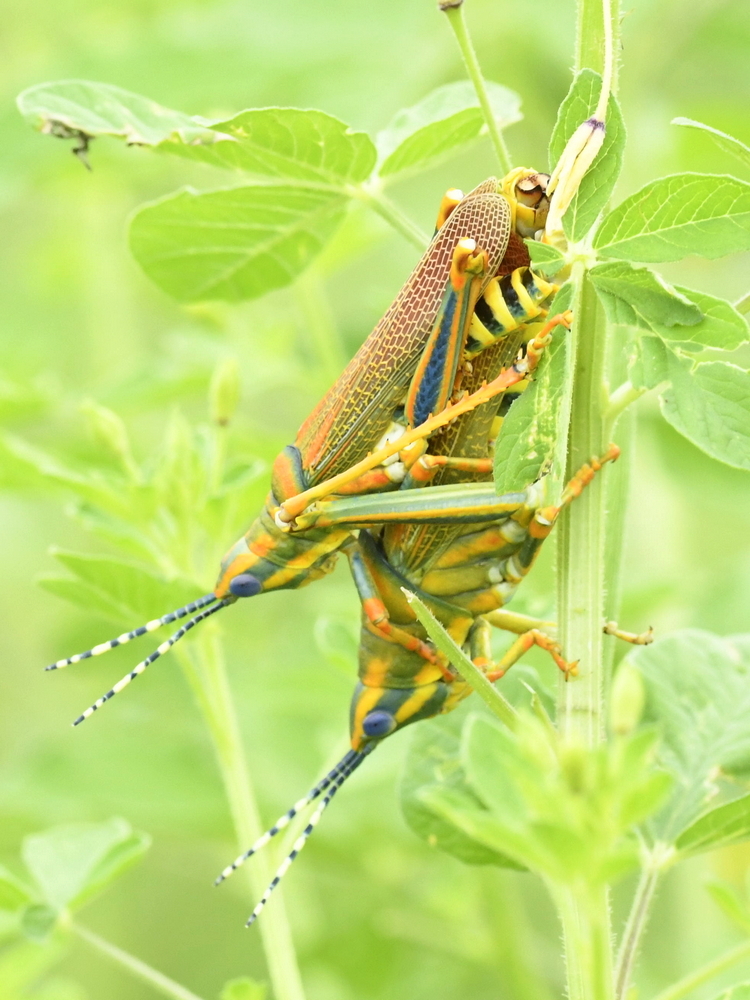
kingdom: Animalia
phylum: Arthropoda
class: Insecta
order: Orthoptera
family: Pyrgomorphidae
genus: Poekilocerus
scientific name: Poekilocerus pictus
